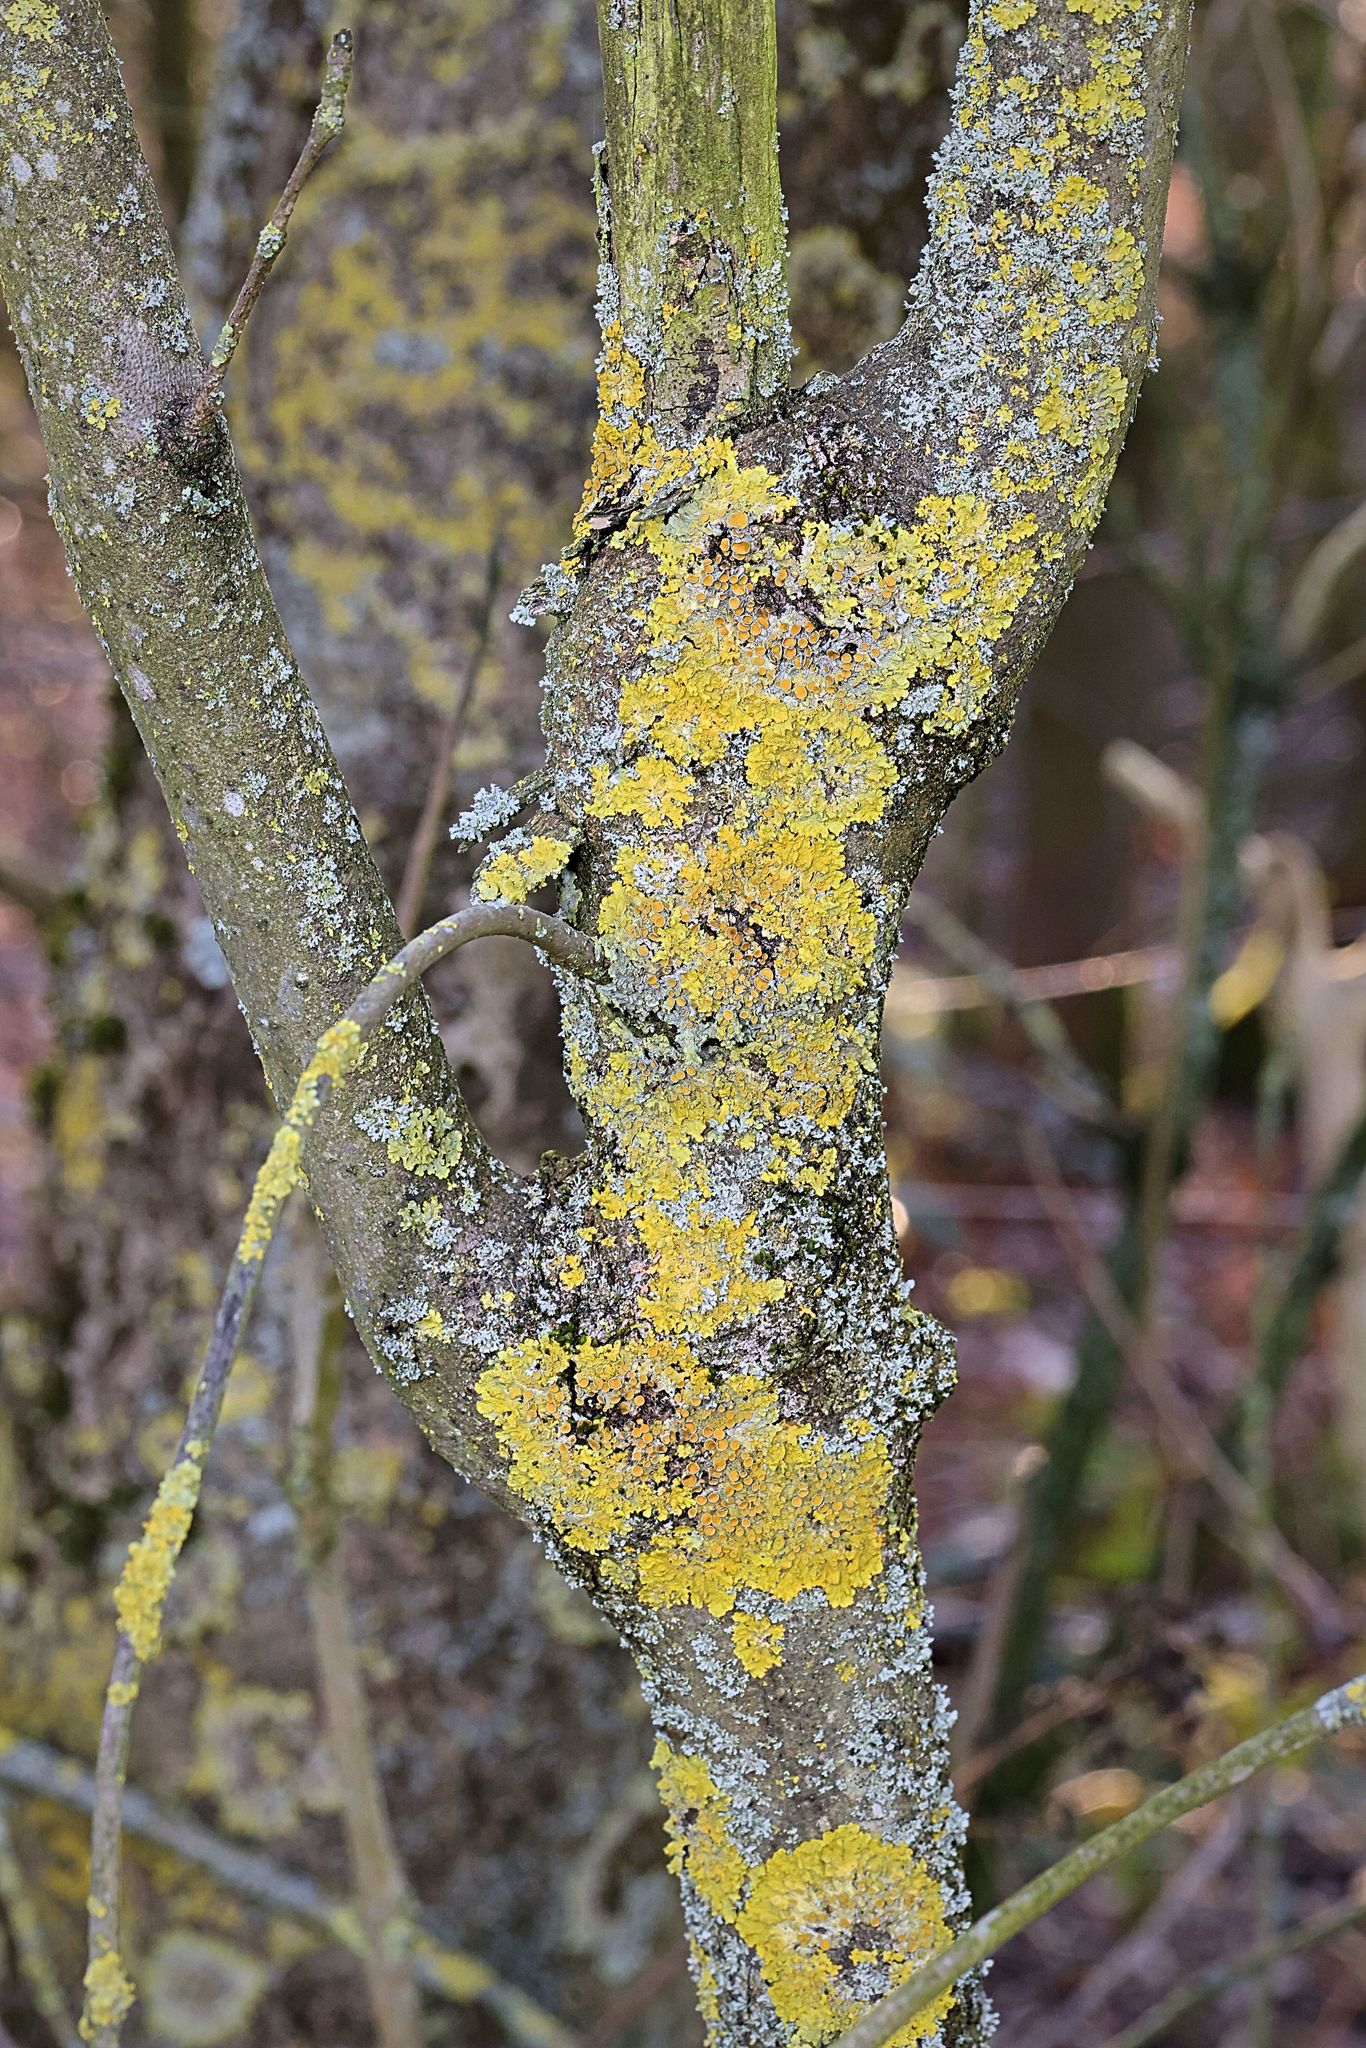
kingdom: Fungi
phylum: Ascomycota
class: Lecanoromycetes
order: Teloschistales
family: Teloschistaceae
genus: Xanthoria
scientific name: Xanthoria parietina
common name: Common orange lichen
